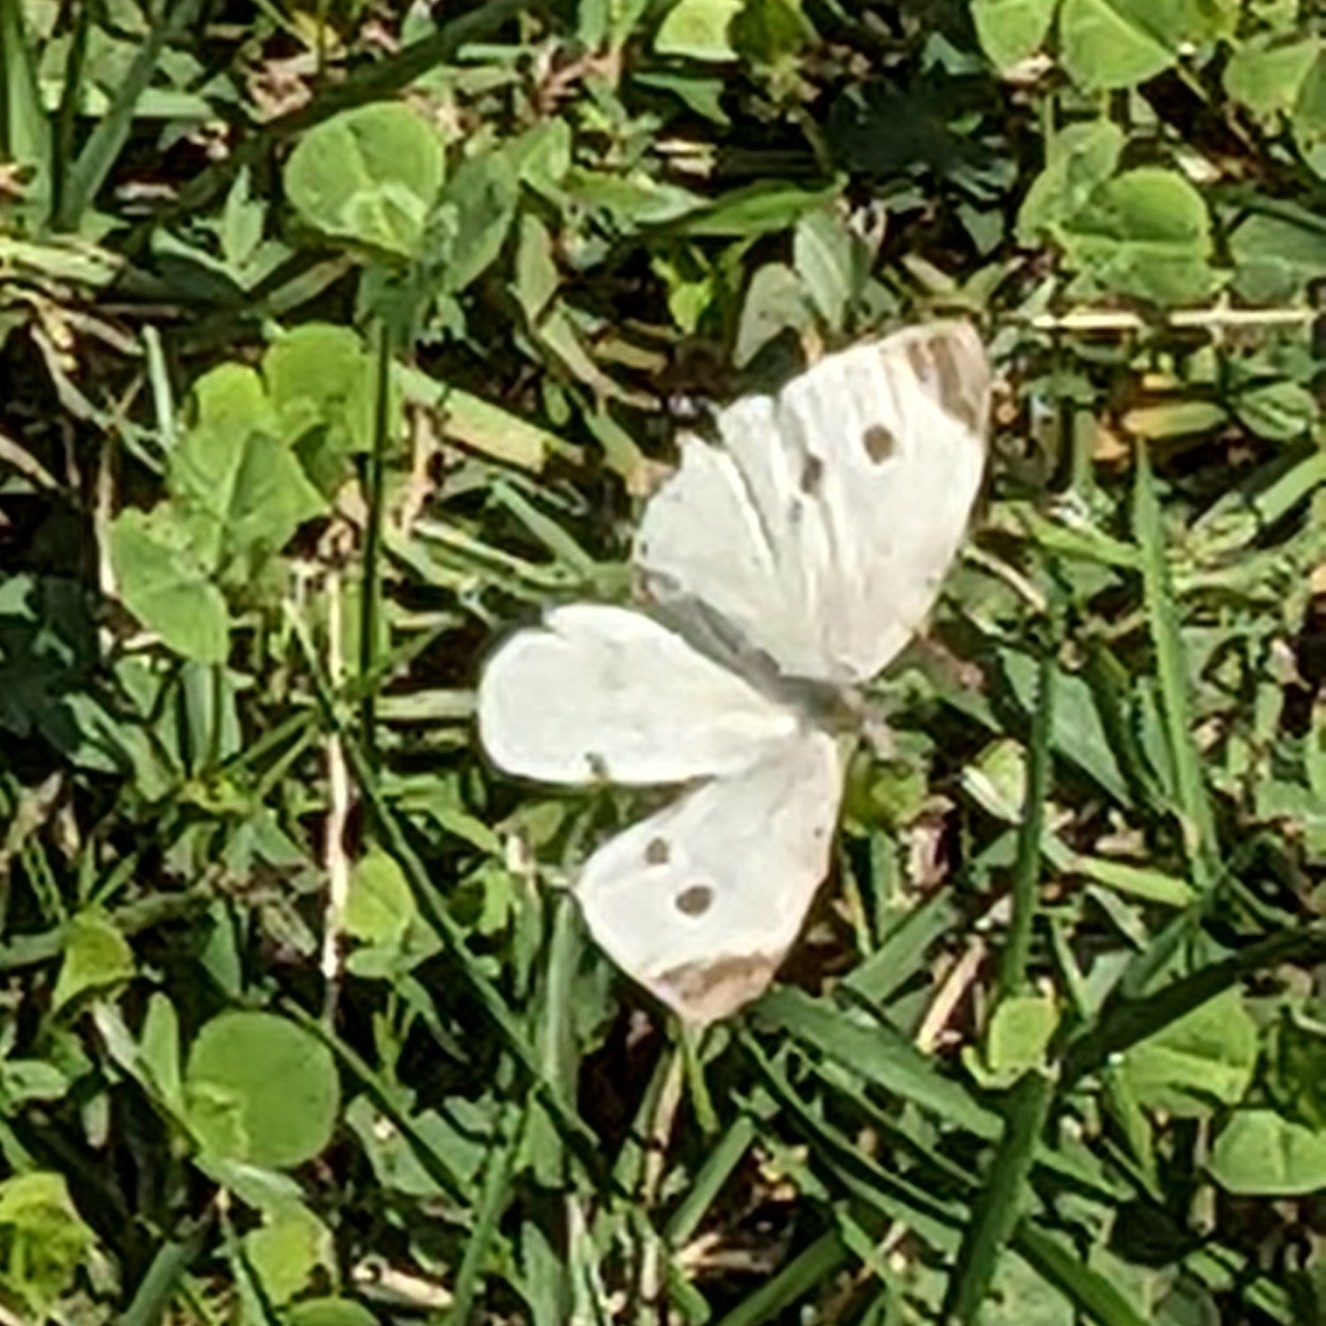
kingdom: Animalia
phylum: Arthropoda
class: Insecta
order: Lepidoptera
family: Pieridae
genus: Pieris
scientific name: Pieris rapae
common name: Small white
